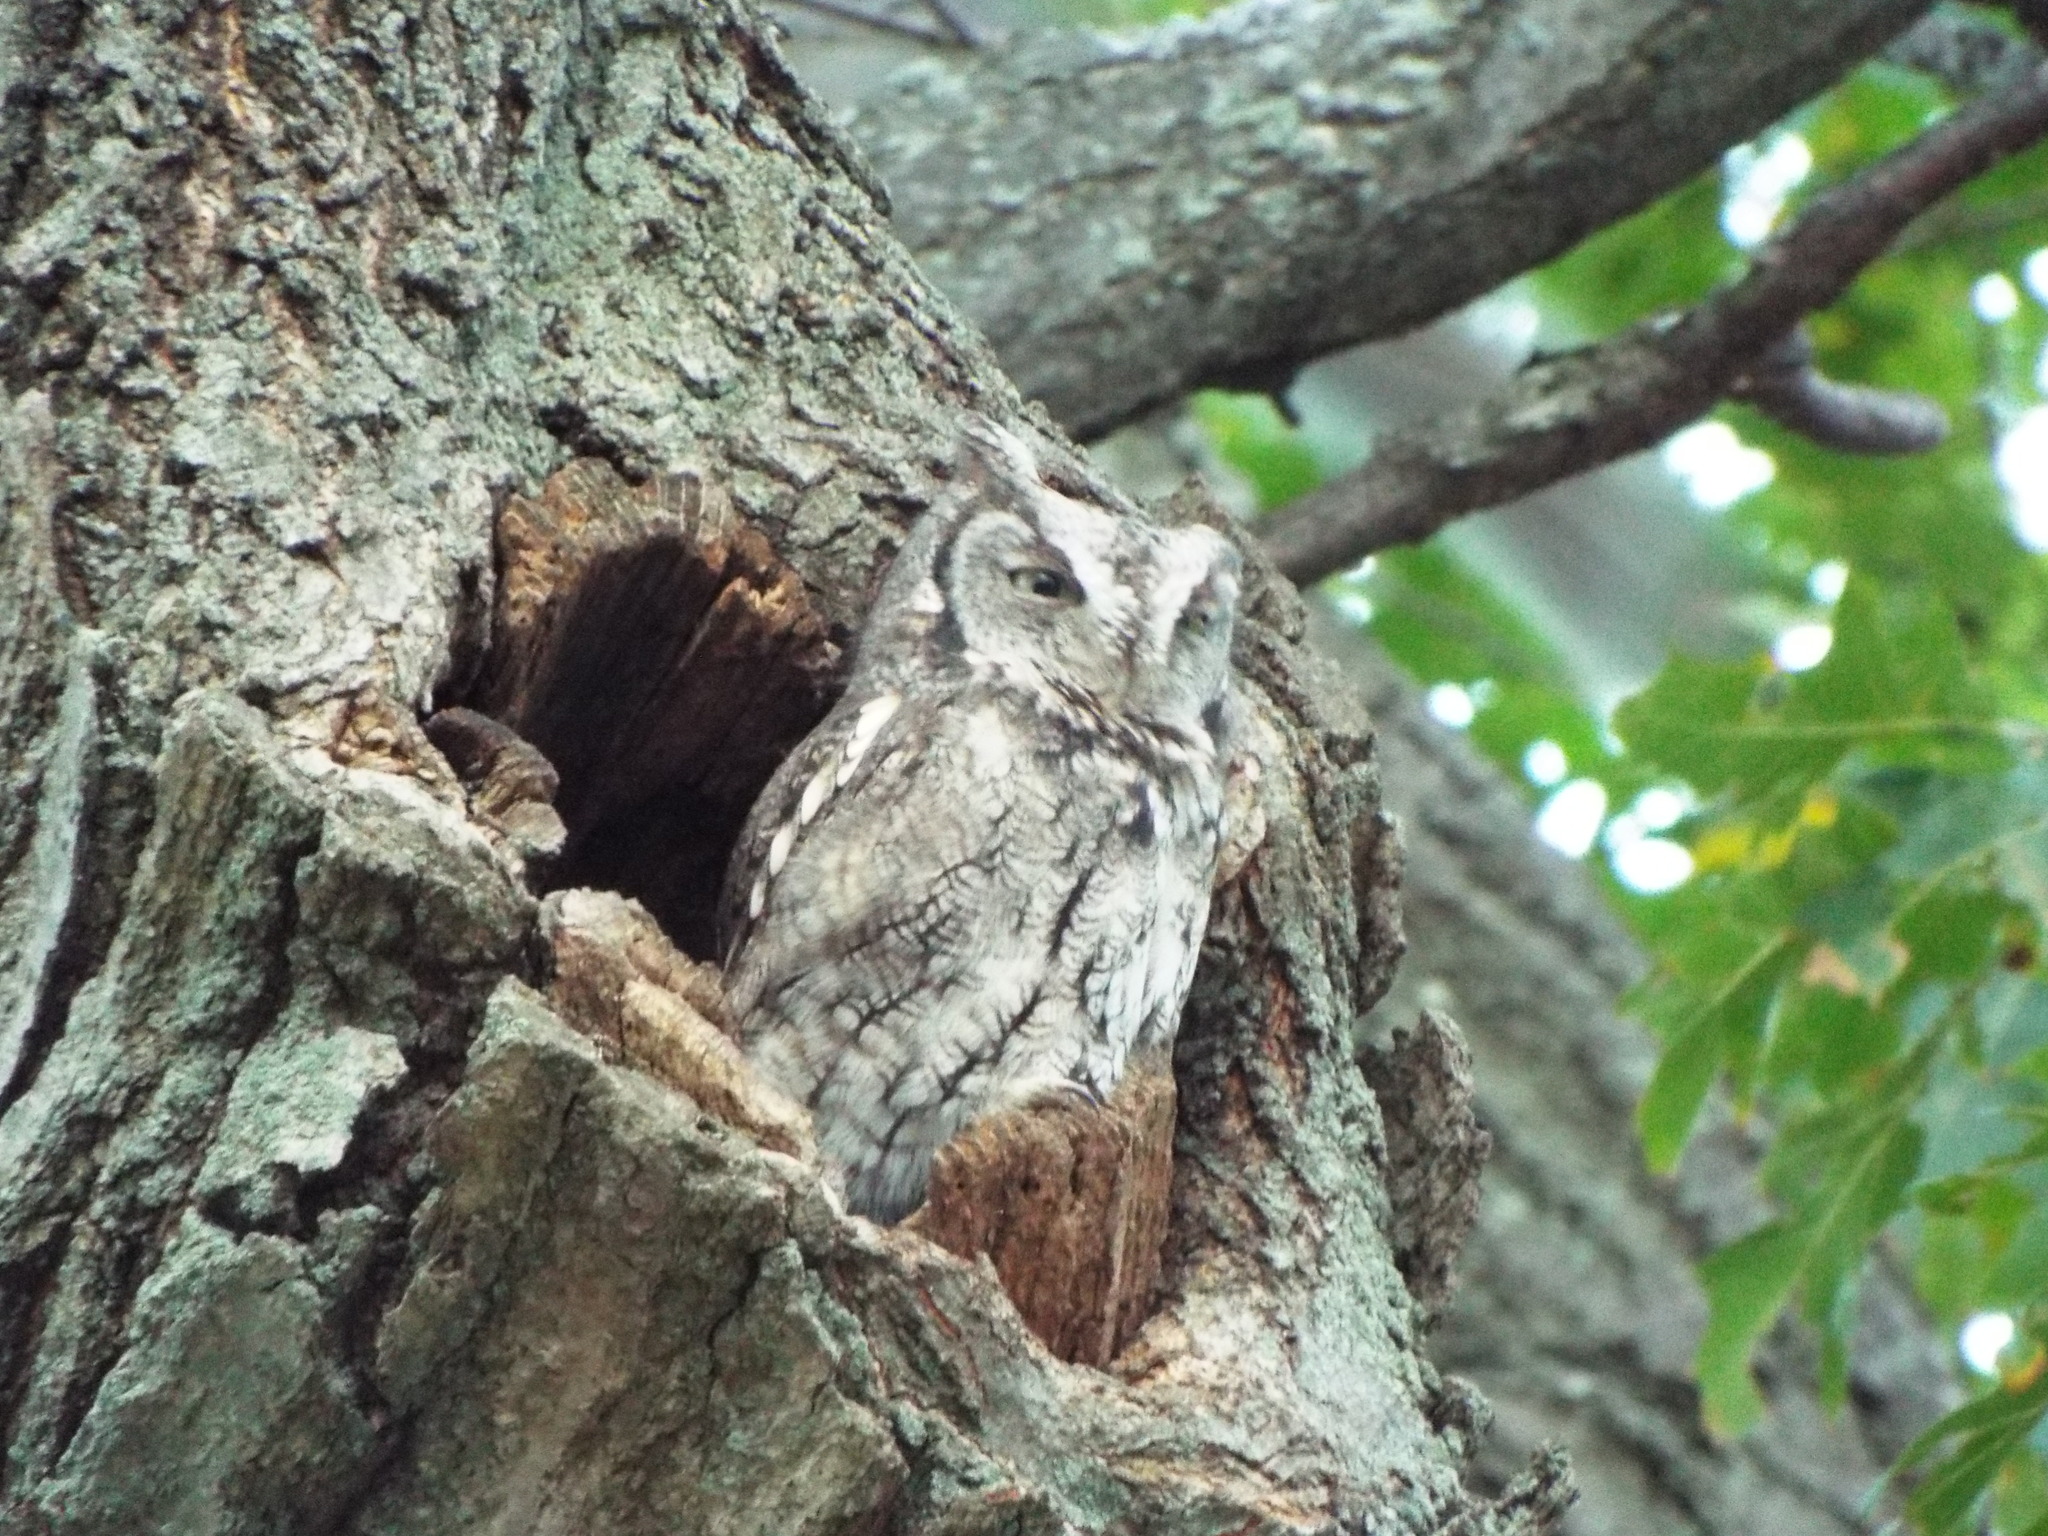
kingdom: Animalia
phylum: Chordata
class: Aves
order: Strigiformes
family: Strigidae
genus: Megascops
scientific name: Megascops asio
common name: Eastern screech-owl
